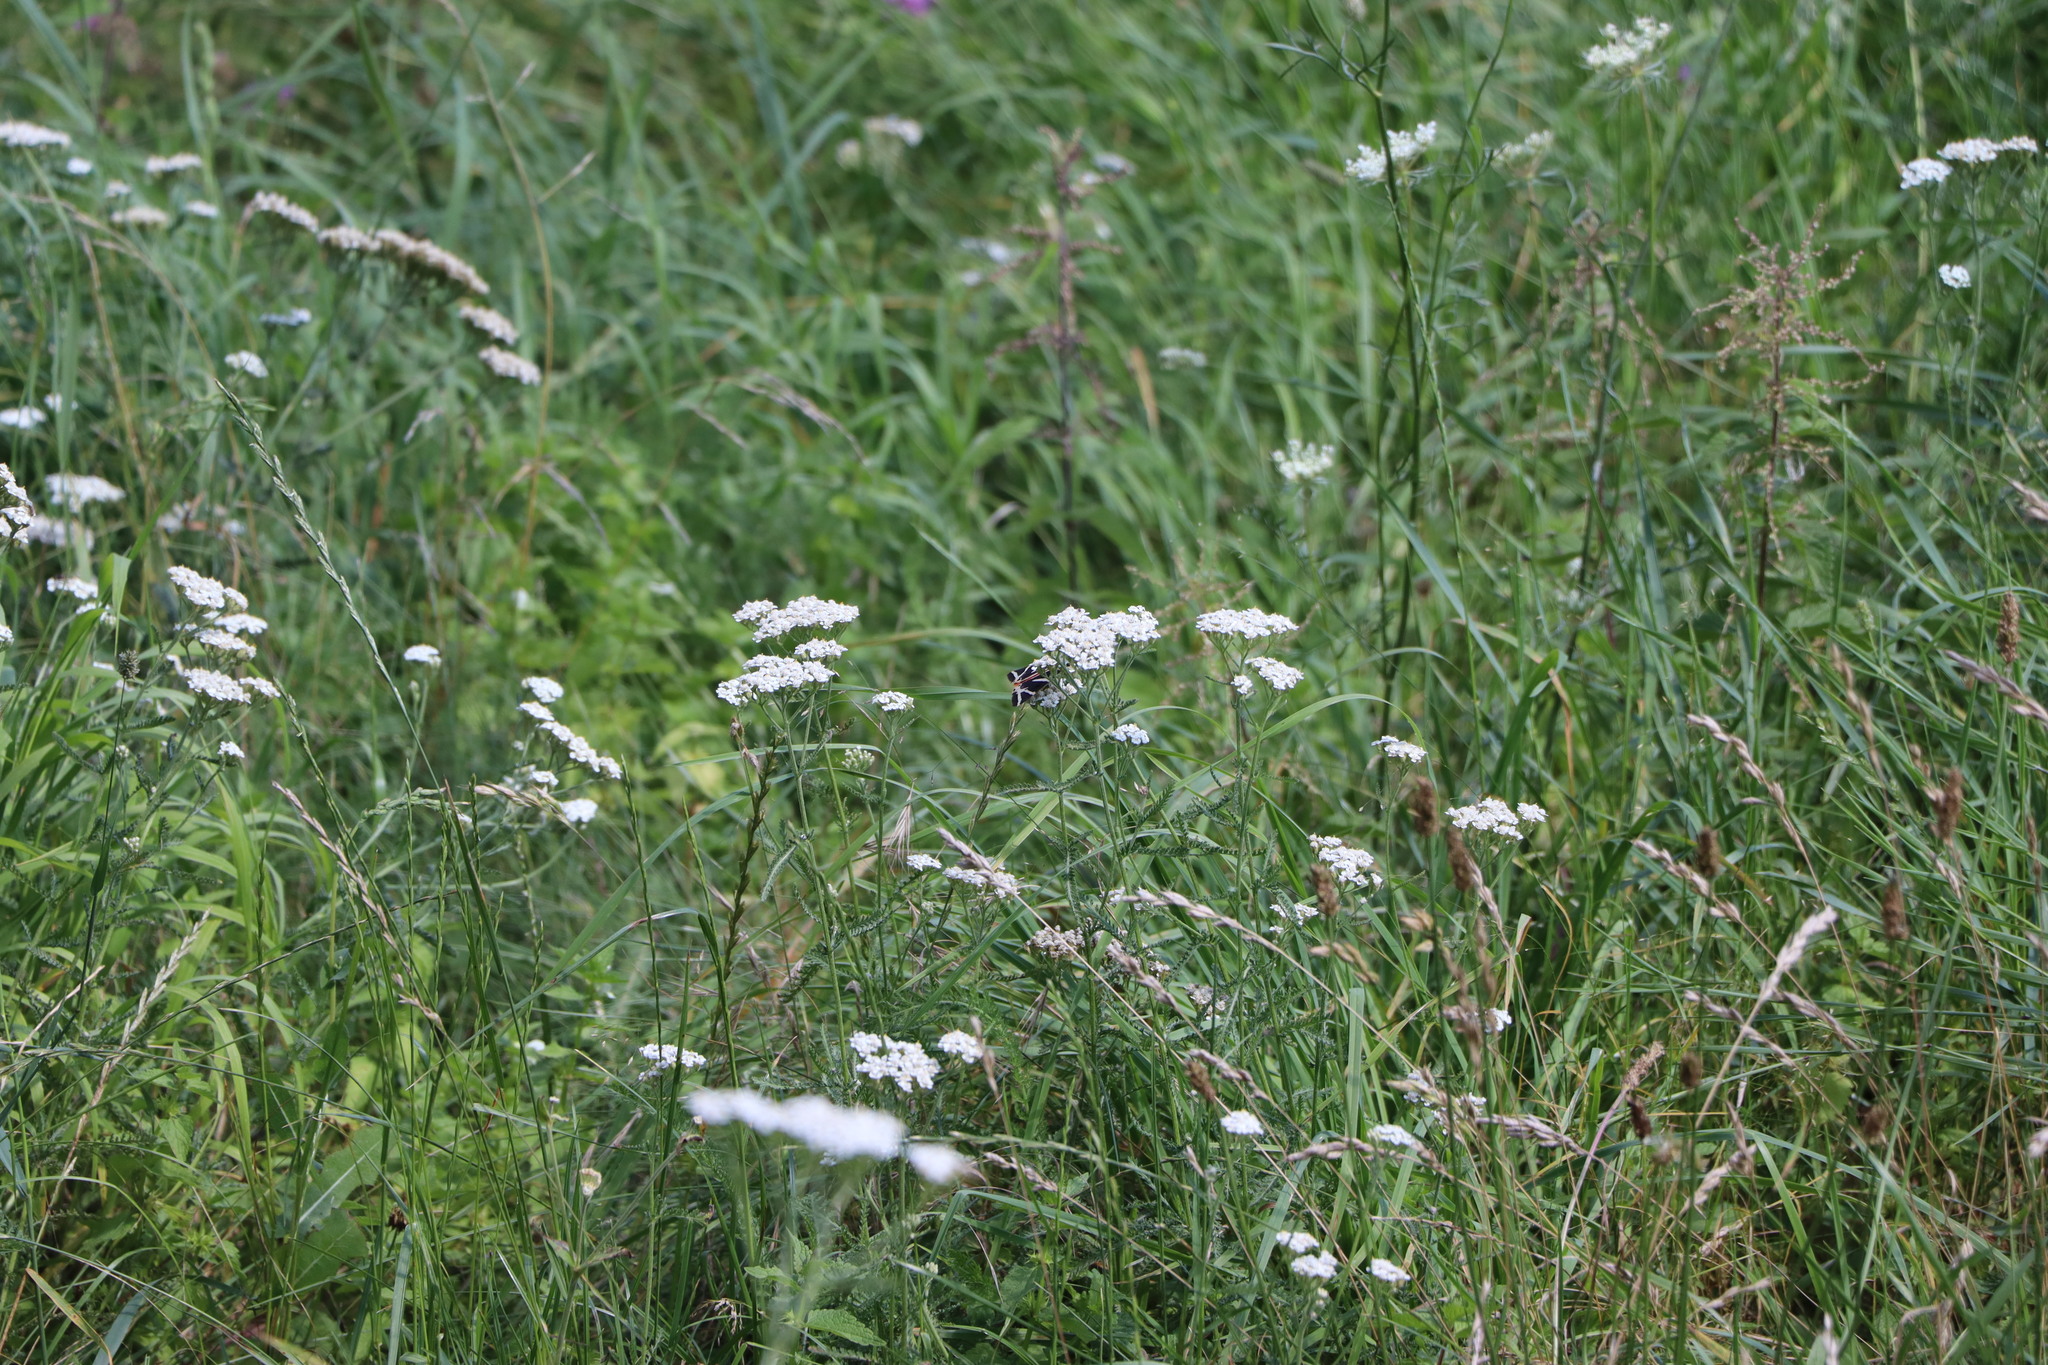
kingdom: Animalia
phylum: Arthropoda
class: Insecta
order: Lepidoptera
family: Erebidae
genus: Euplagia
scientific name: Euplagia quadripunctaria
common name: Jersey tiger
